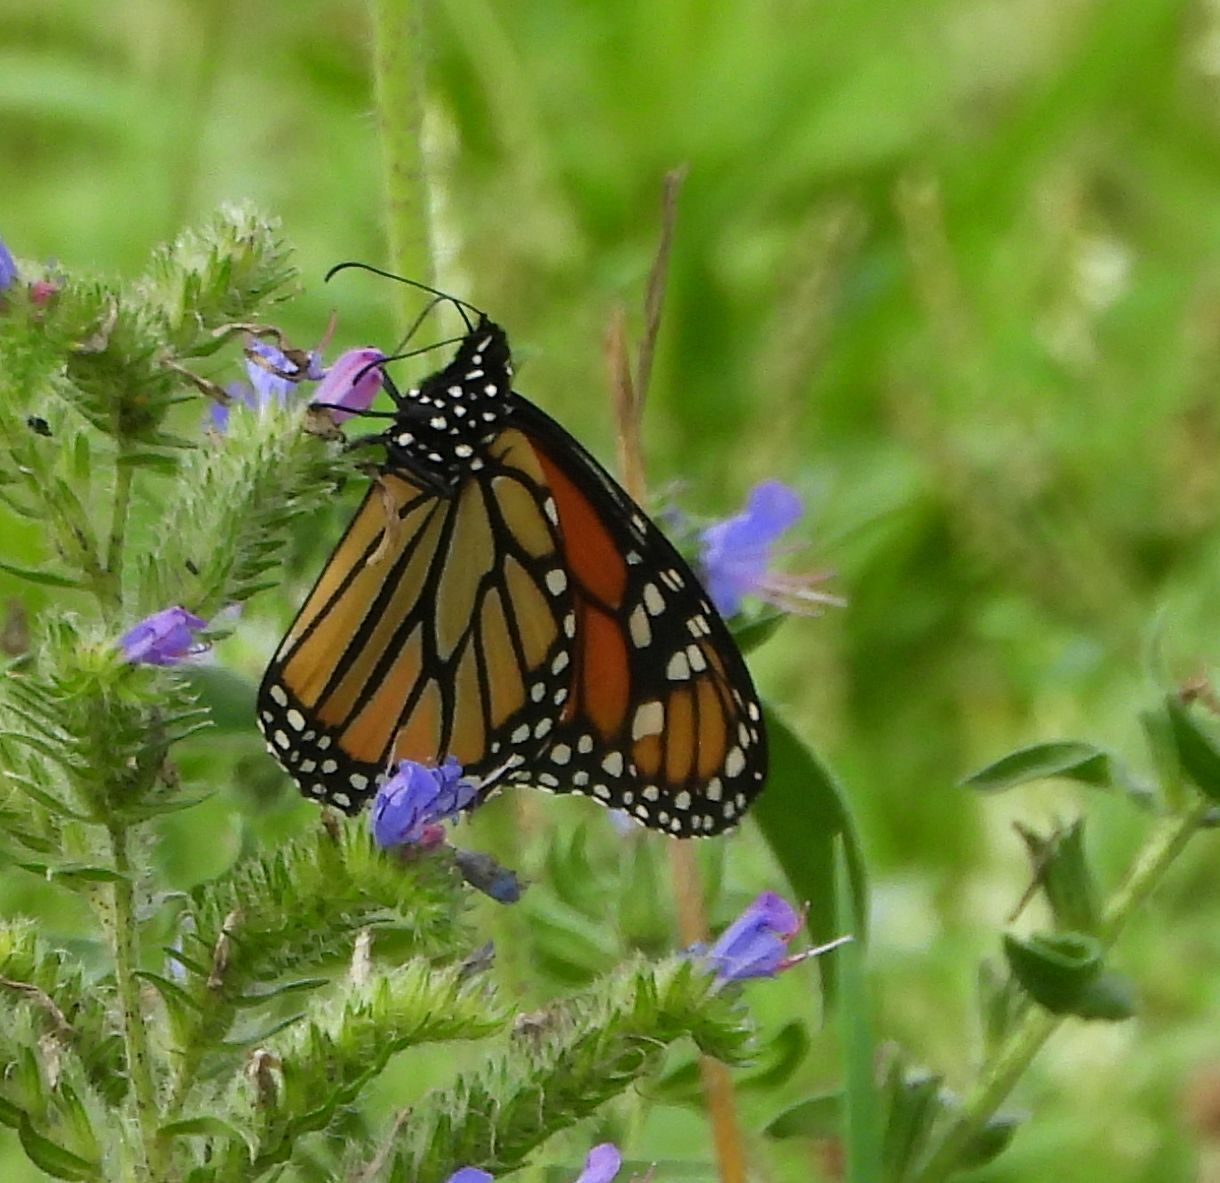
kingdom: Animalia
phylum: Arthropoda
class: Insecta
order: Lepidoptera
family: Nymphalidae
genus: Danaus
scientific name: Danaus plexippus
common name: Monarch
